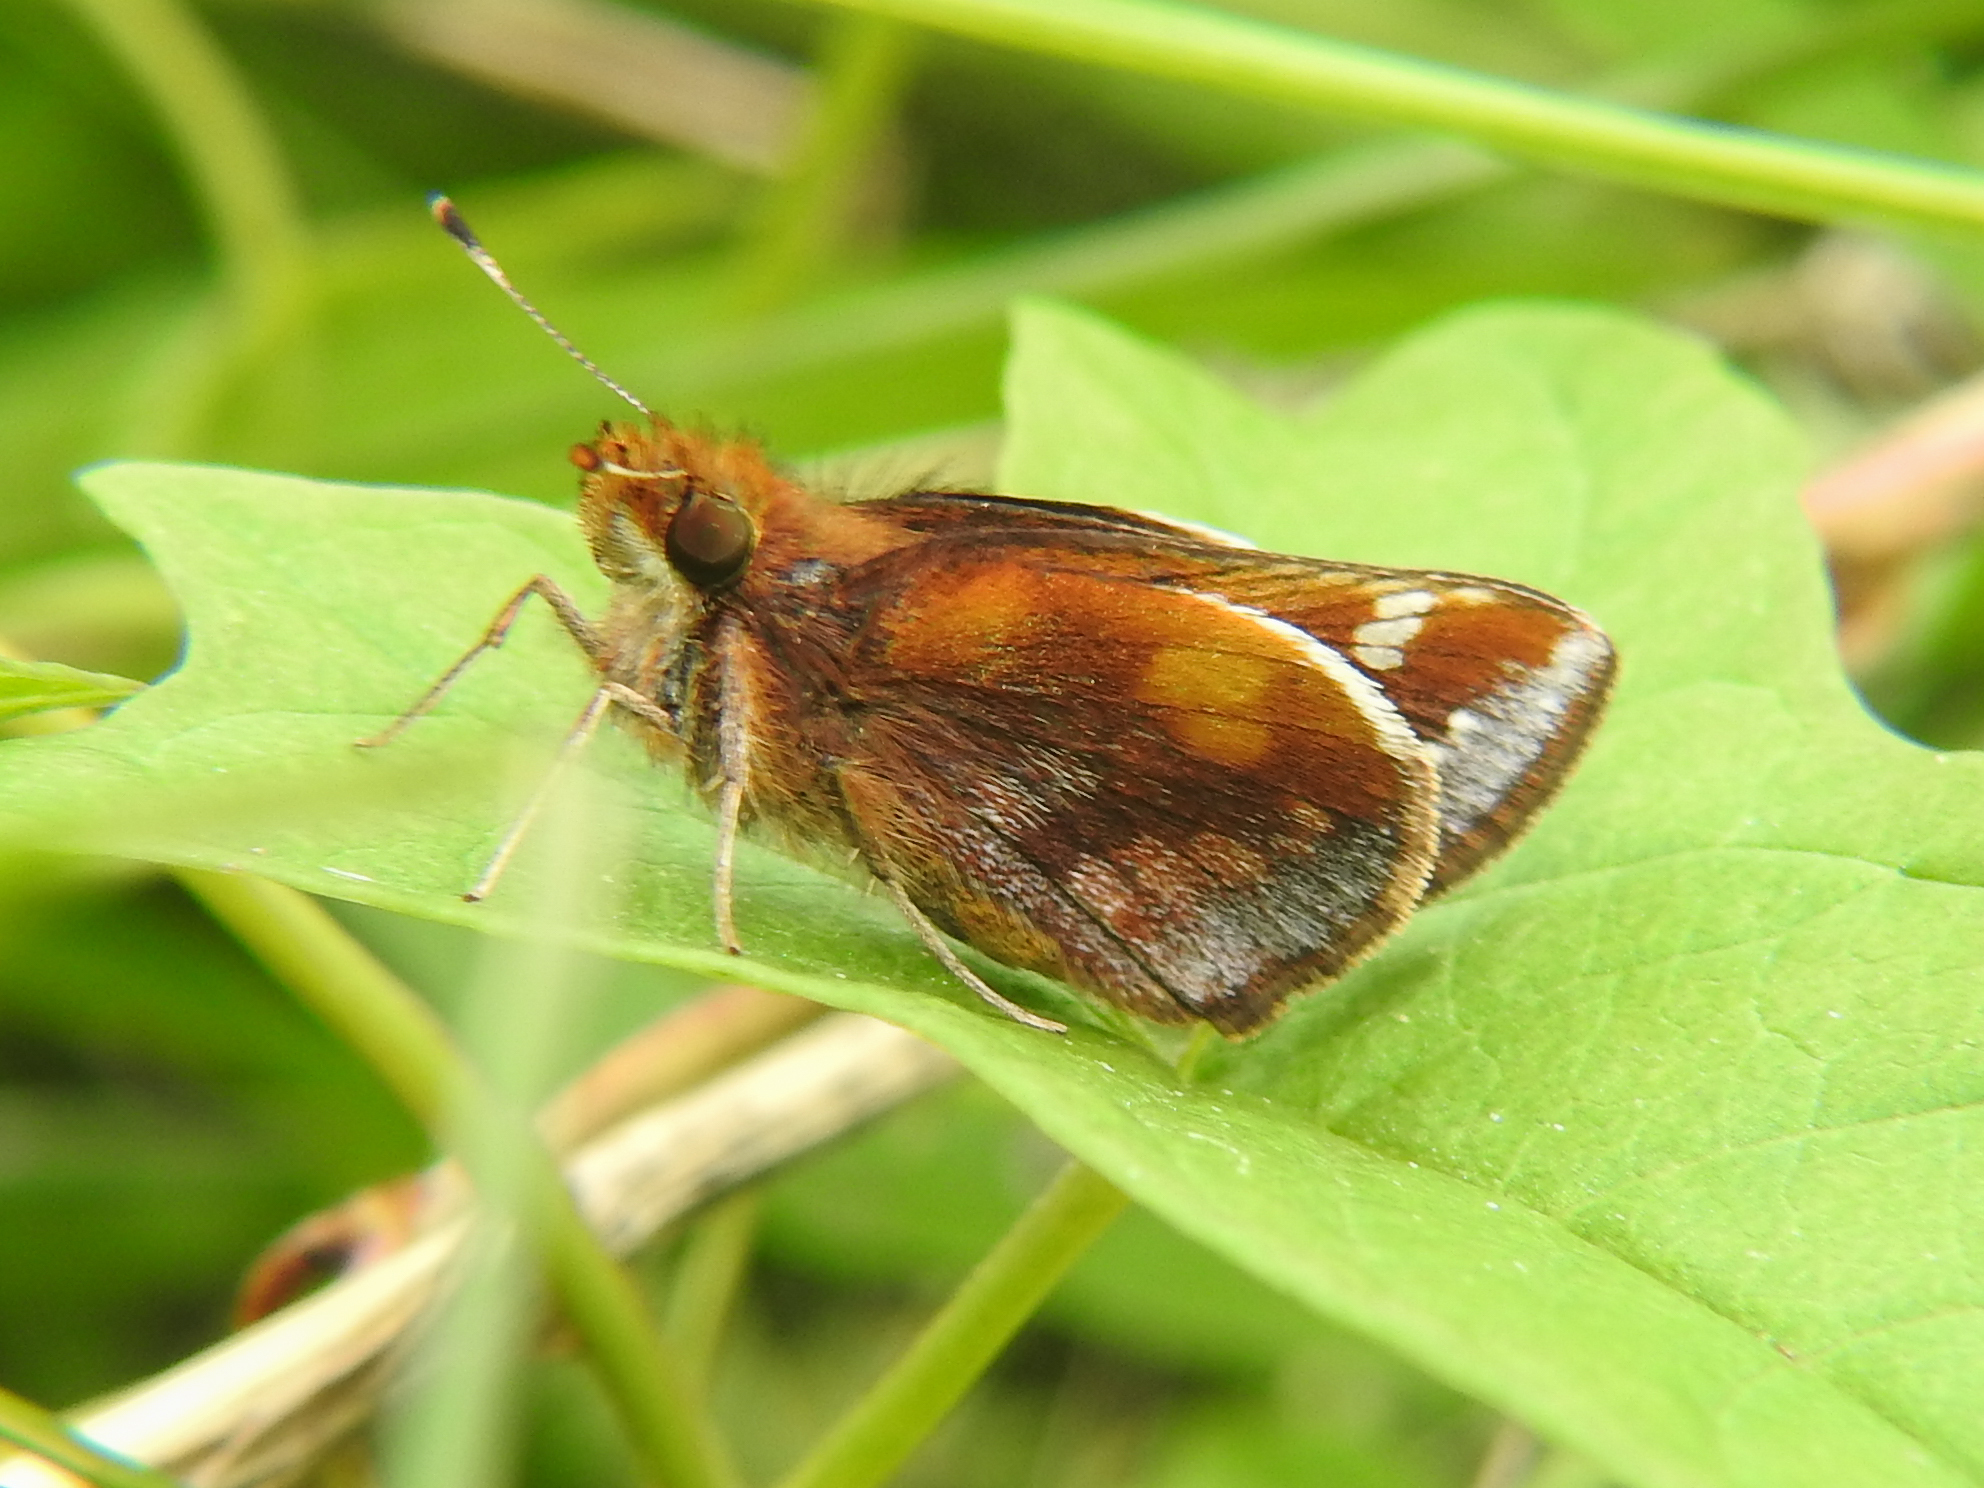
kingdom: Animalia
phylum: Arthropoda
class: Insecta
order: Lepidoptera
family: Hesperiidae
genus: Lon
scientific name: Lon zabulon
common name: Zabulon skipper
